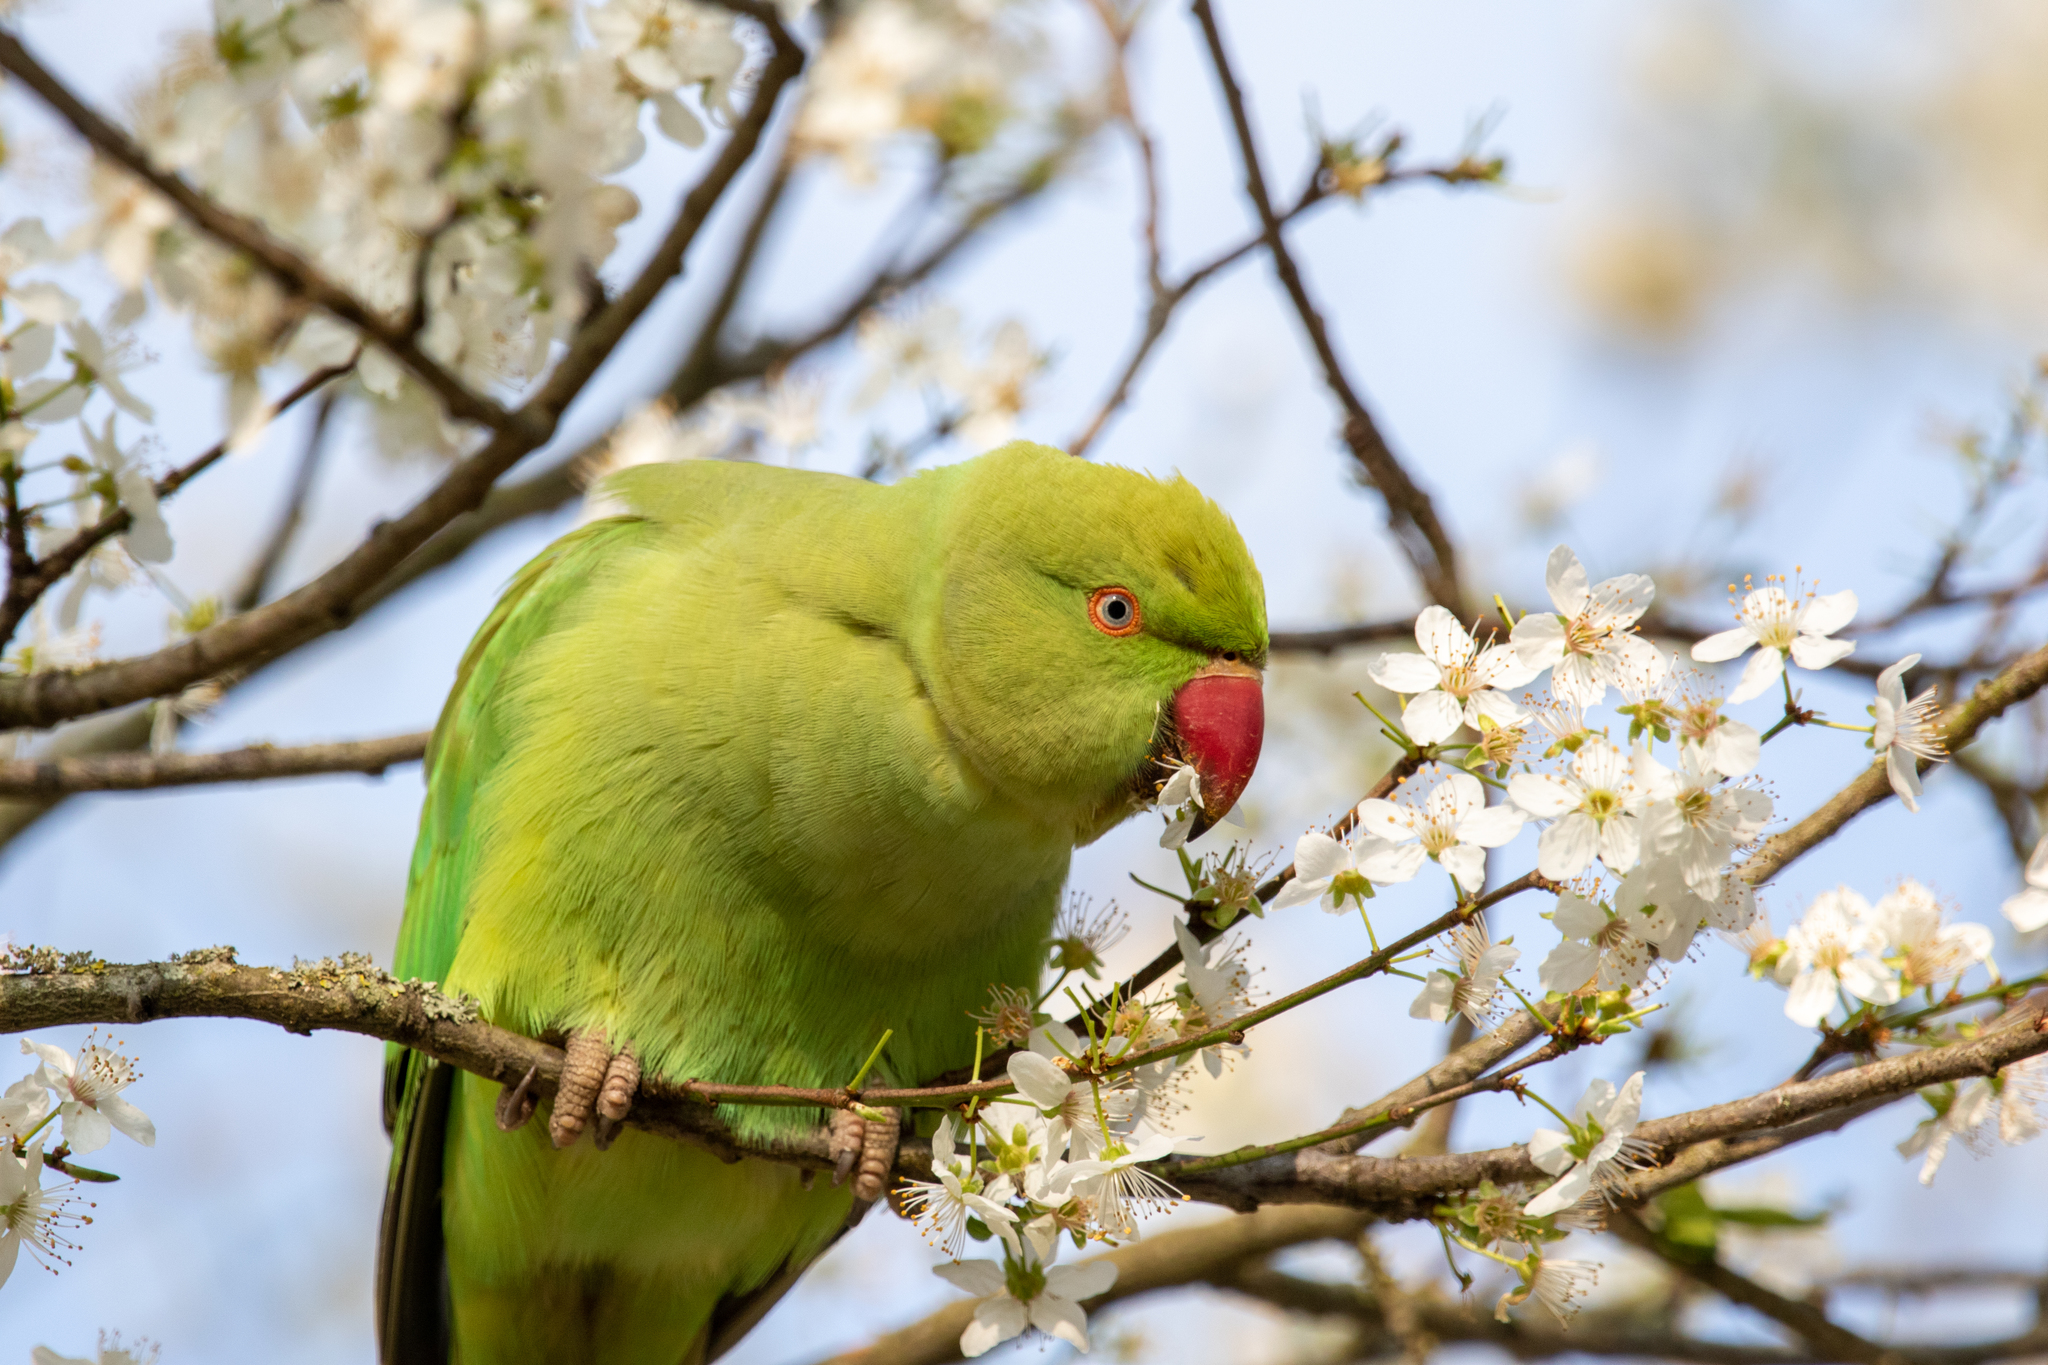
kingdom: Animalia
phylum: Chordata
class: Aves
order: Psittaciformes
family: Psittacidae
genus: Psittacula
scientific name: Psittacula krameri
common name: Rose-ringed parakeet
